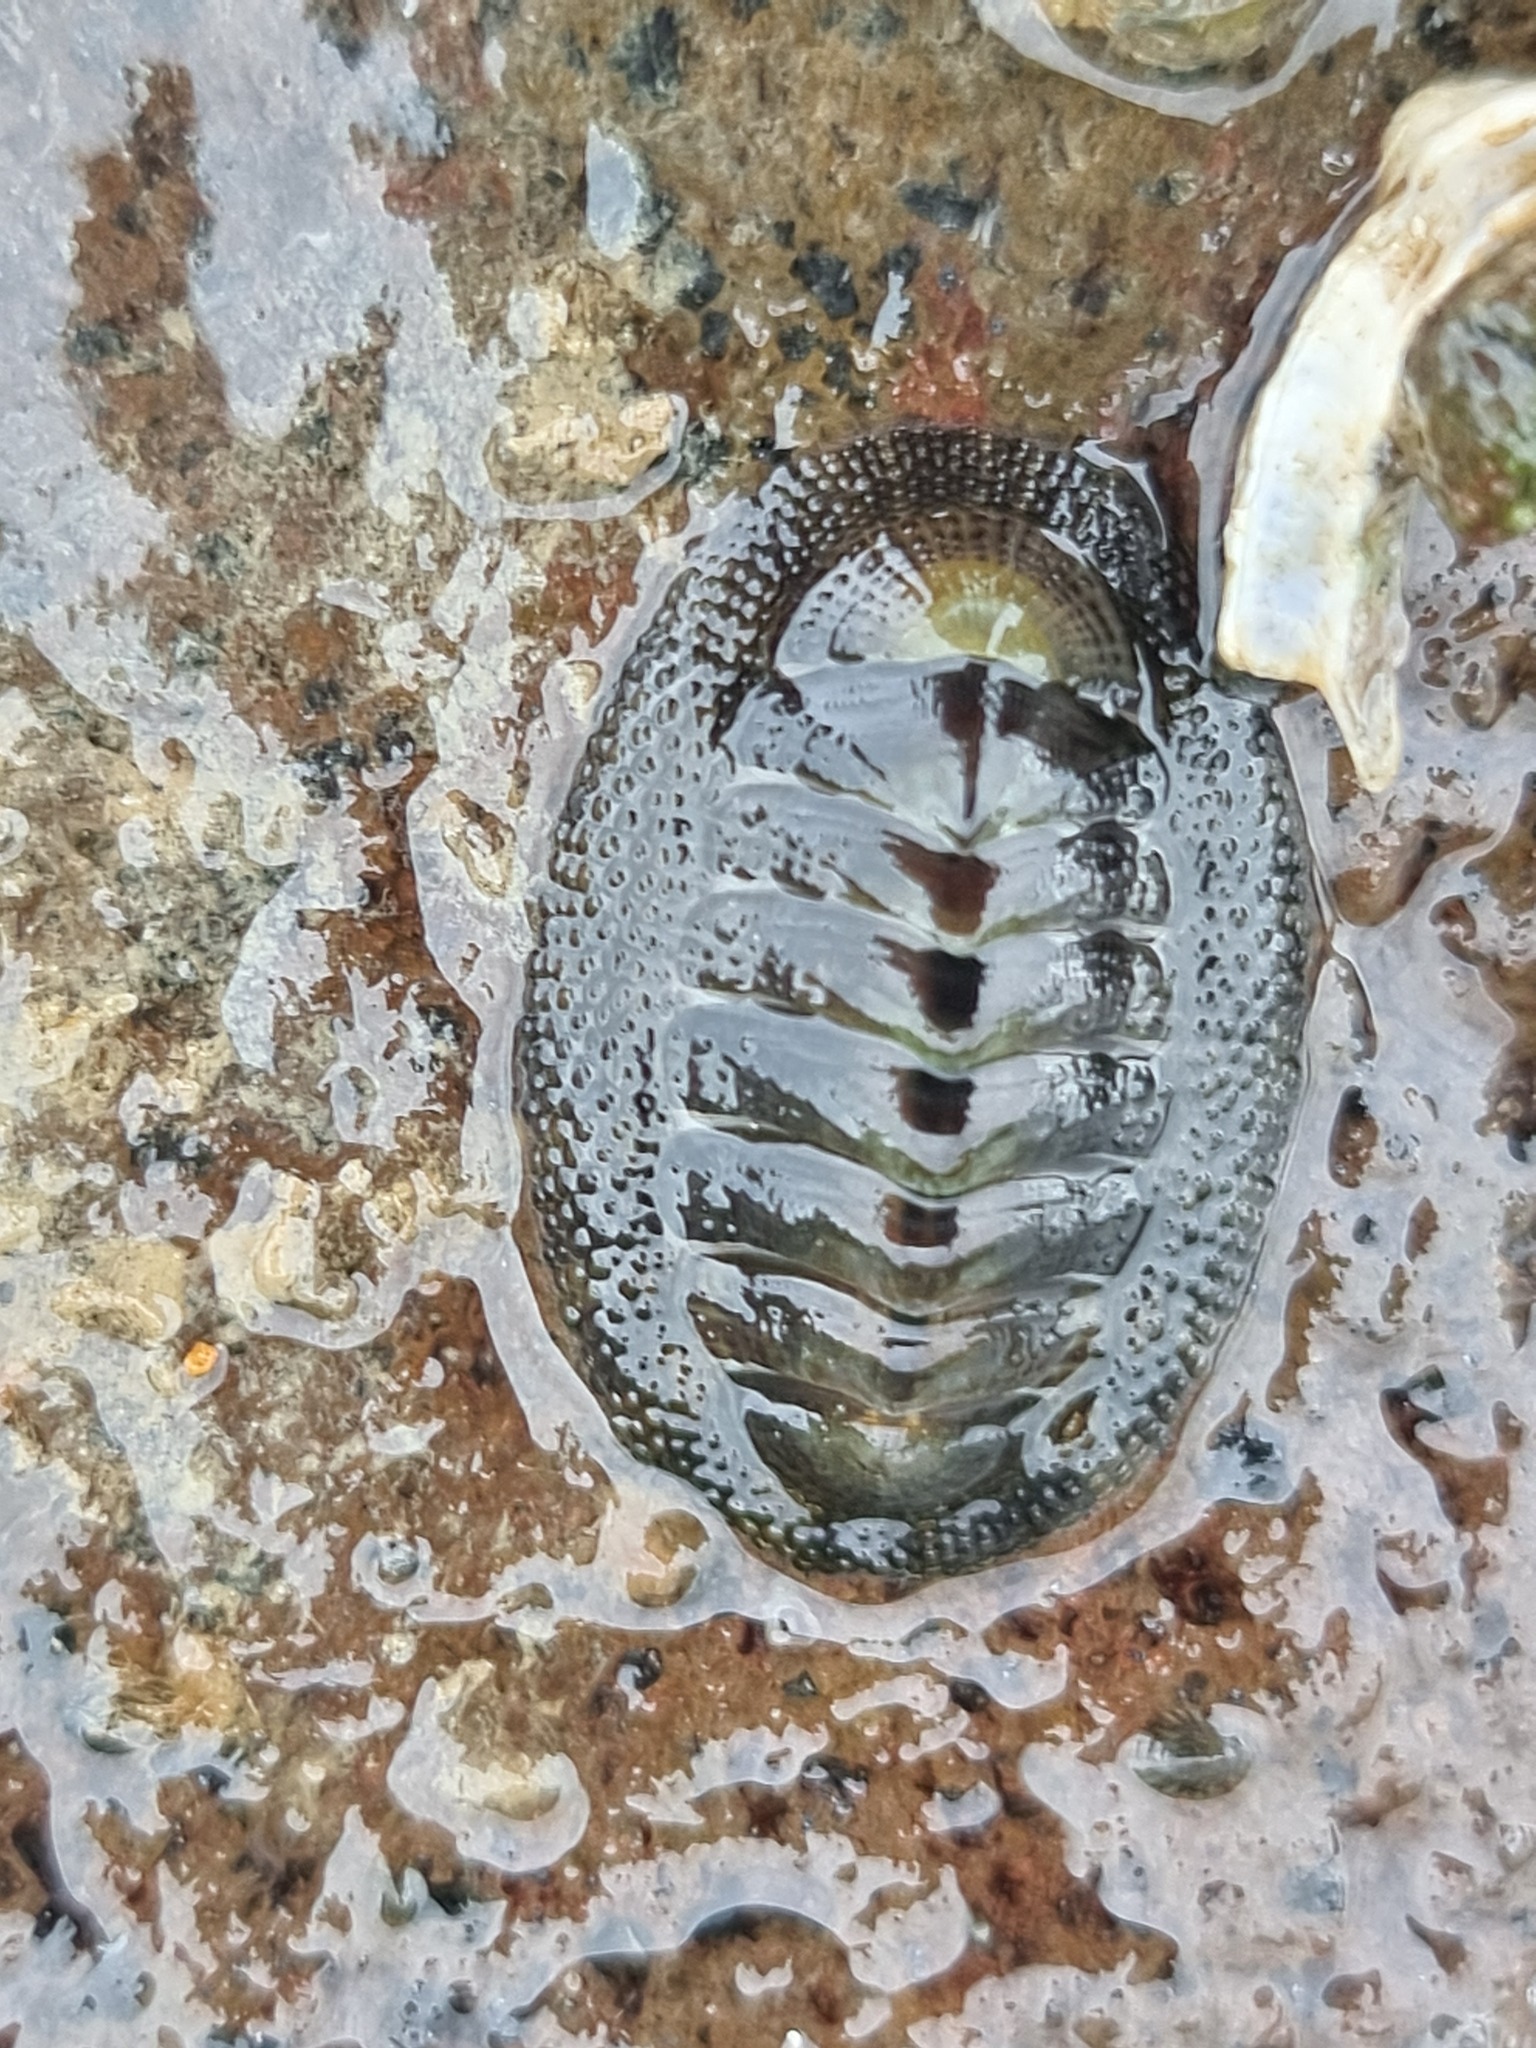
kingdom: Animalia
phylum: Mollusca
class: Polyplacophora
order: Chitonida
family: Chitonidae
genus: Sypharochiton
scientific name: Sypharochiton pelliserpentis
